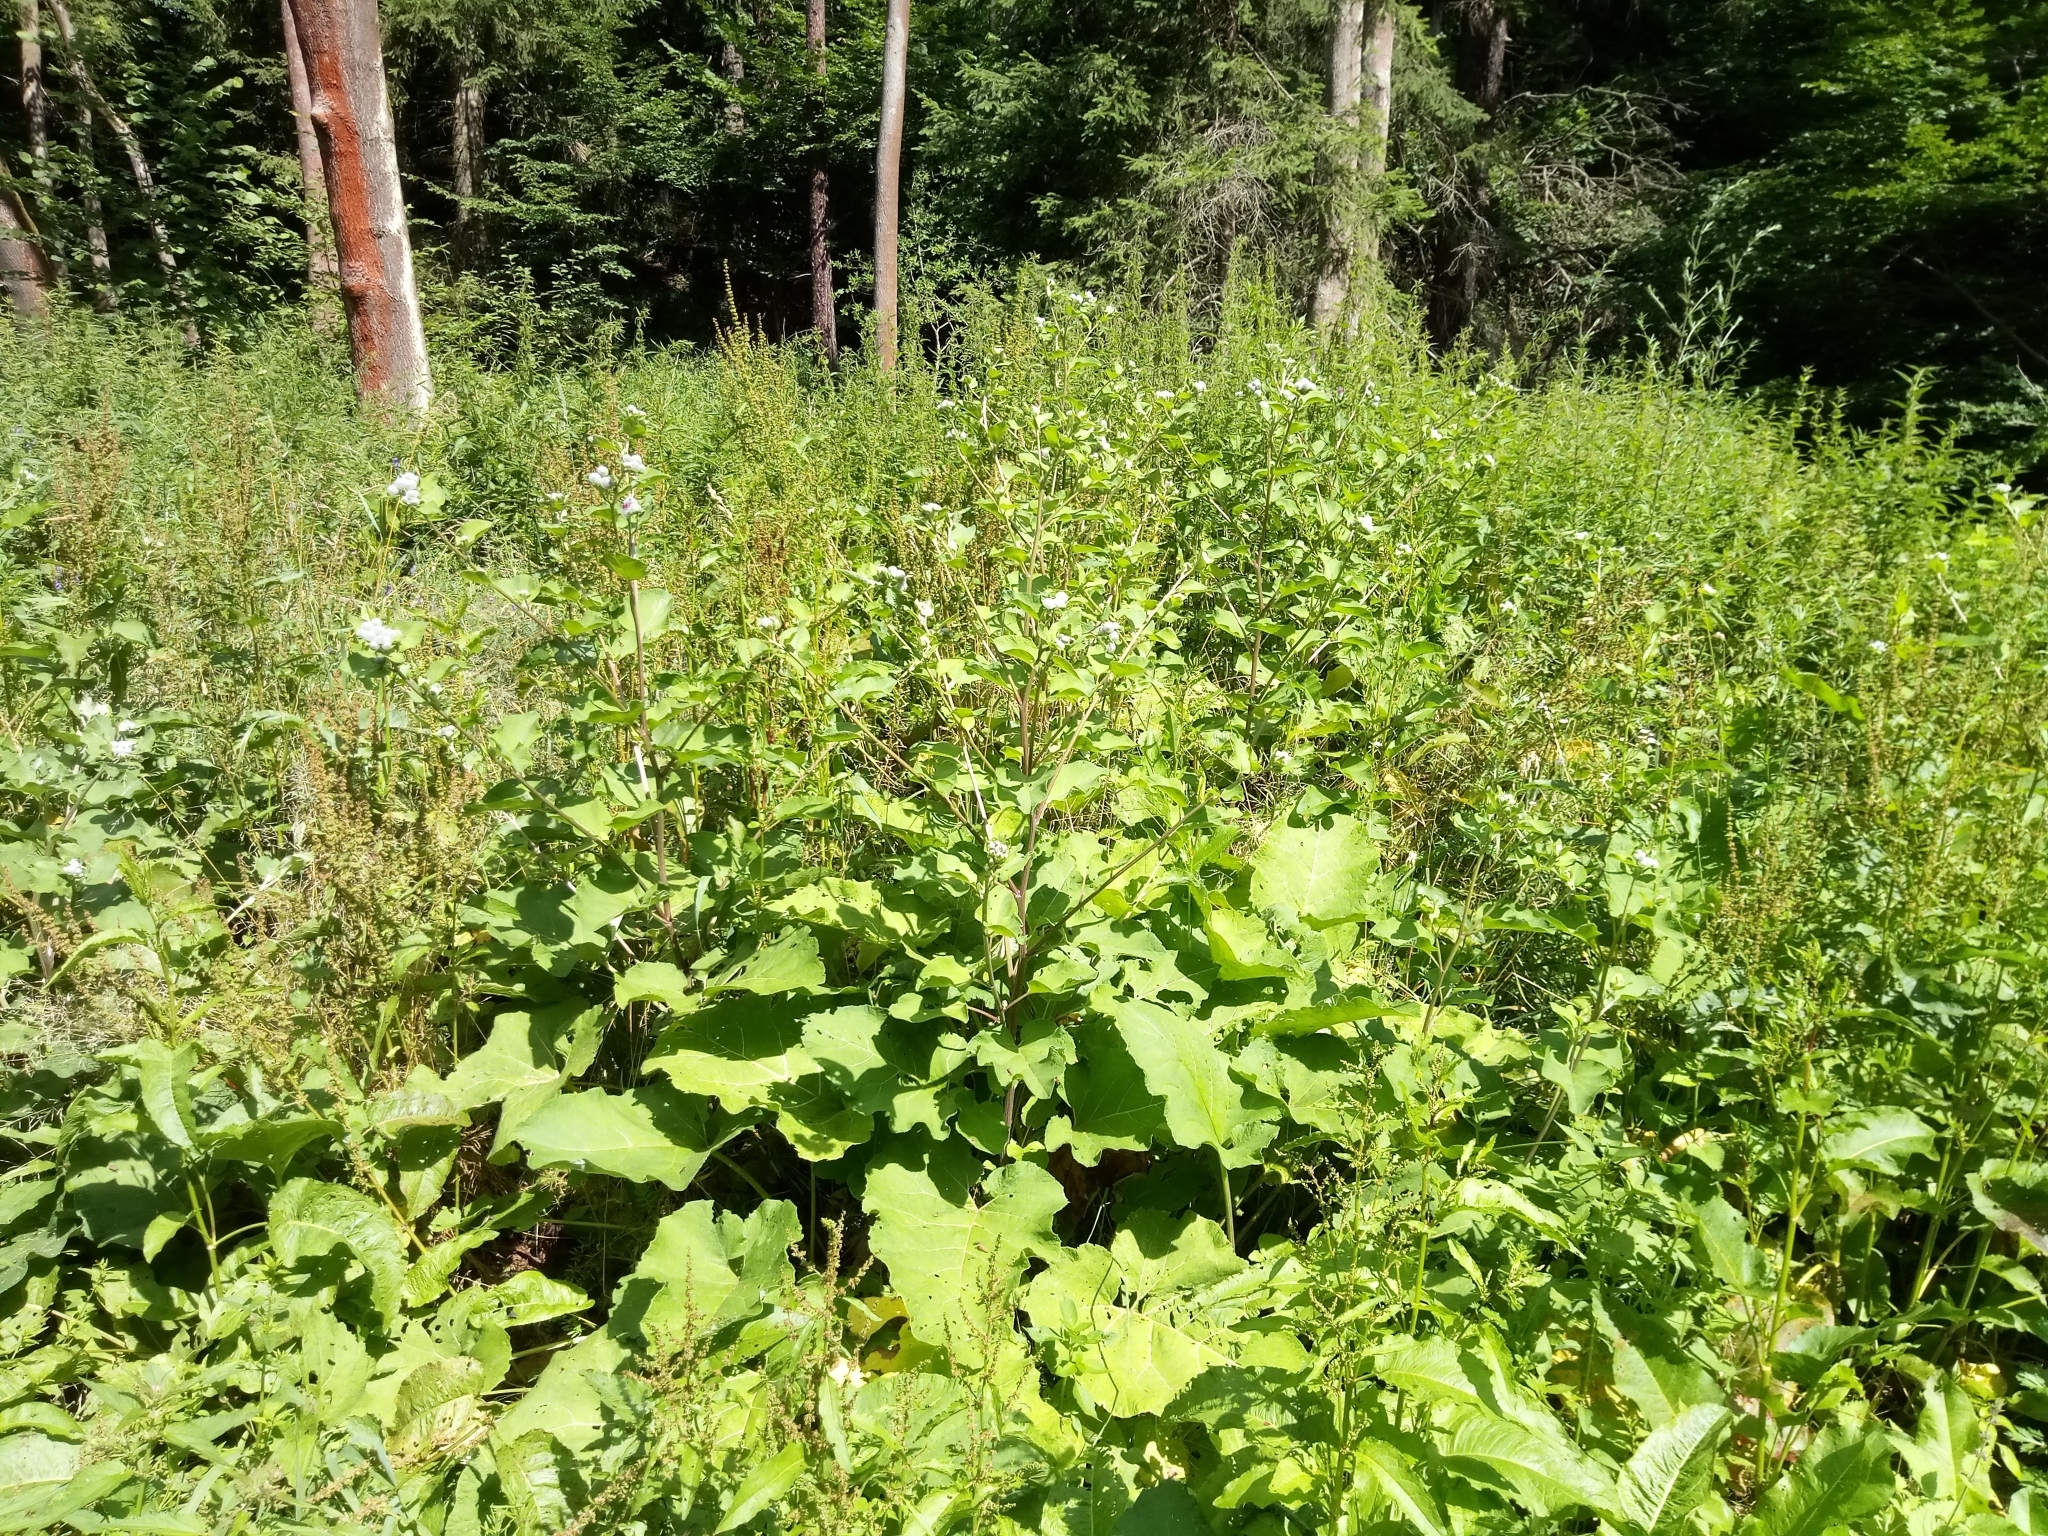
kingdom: Plantae
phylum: Tracheophyta
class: Magnoliopsida
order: Asterales
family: Asteraceae
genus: Arctium
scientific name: Arctium tomentosum
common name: Woolly burdock
